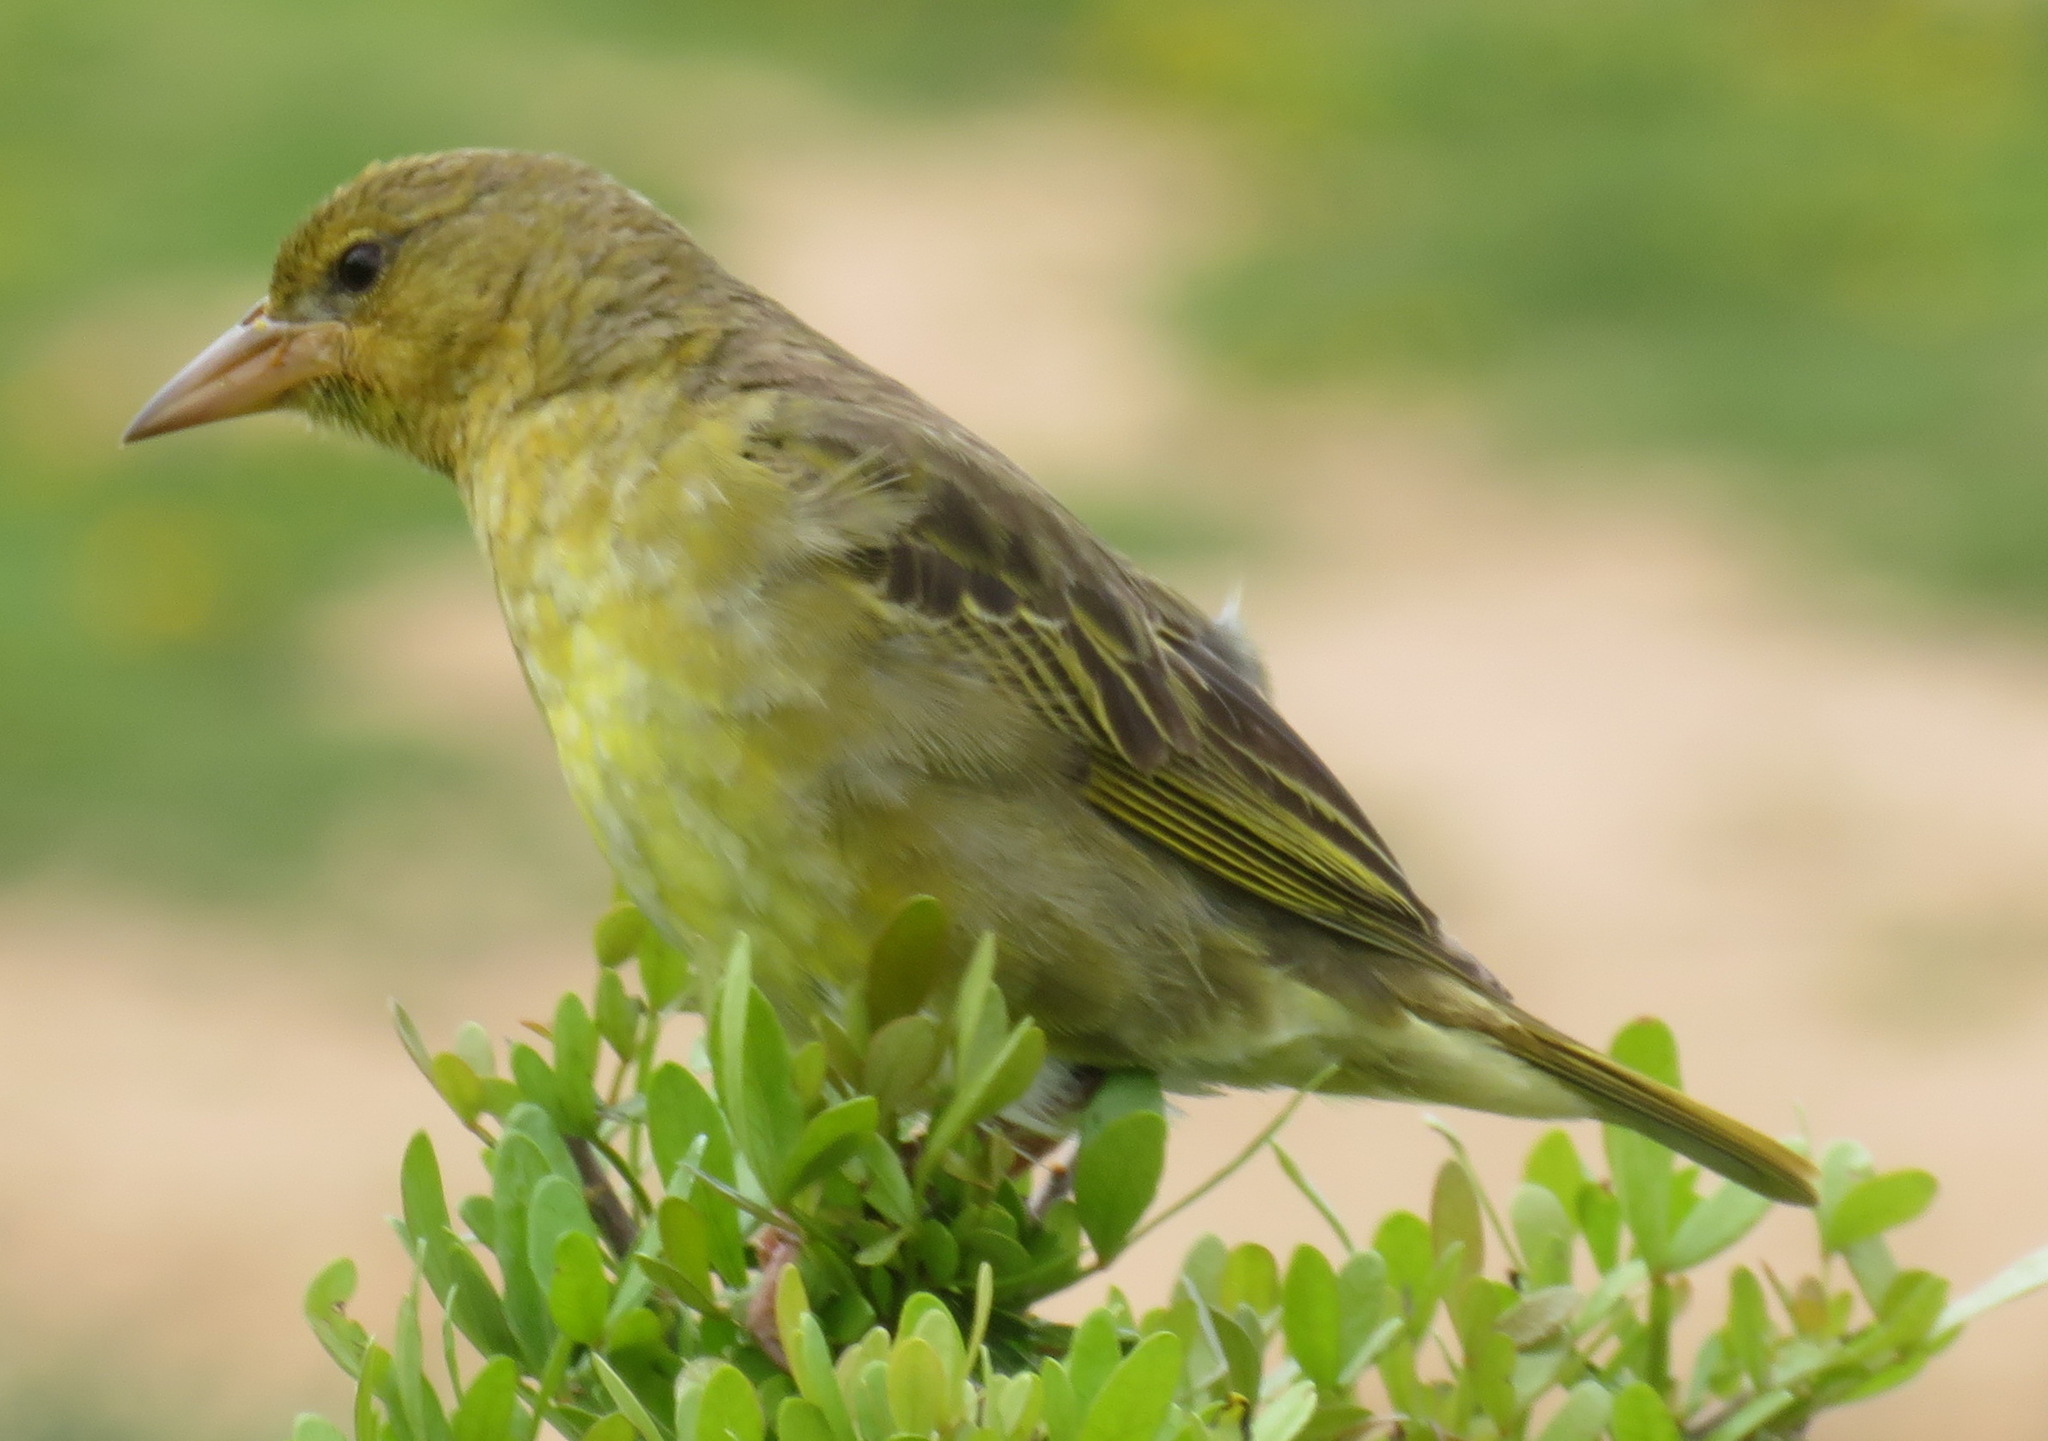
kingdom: Animalia
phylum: Chordata
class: Aves
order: Passeriformes
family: Ploceidae
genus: Ploceus
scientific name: Ploceus capensis
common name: Cape weaver
